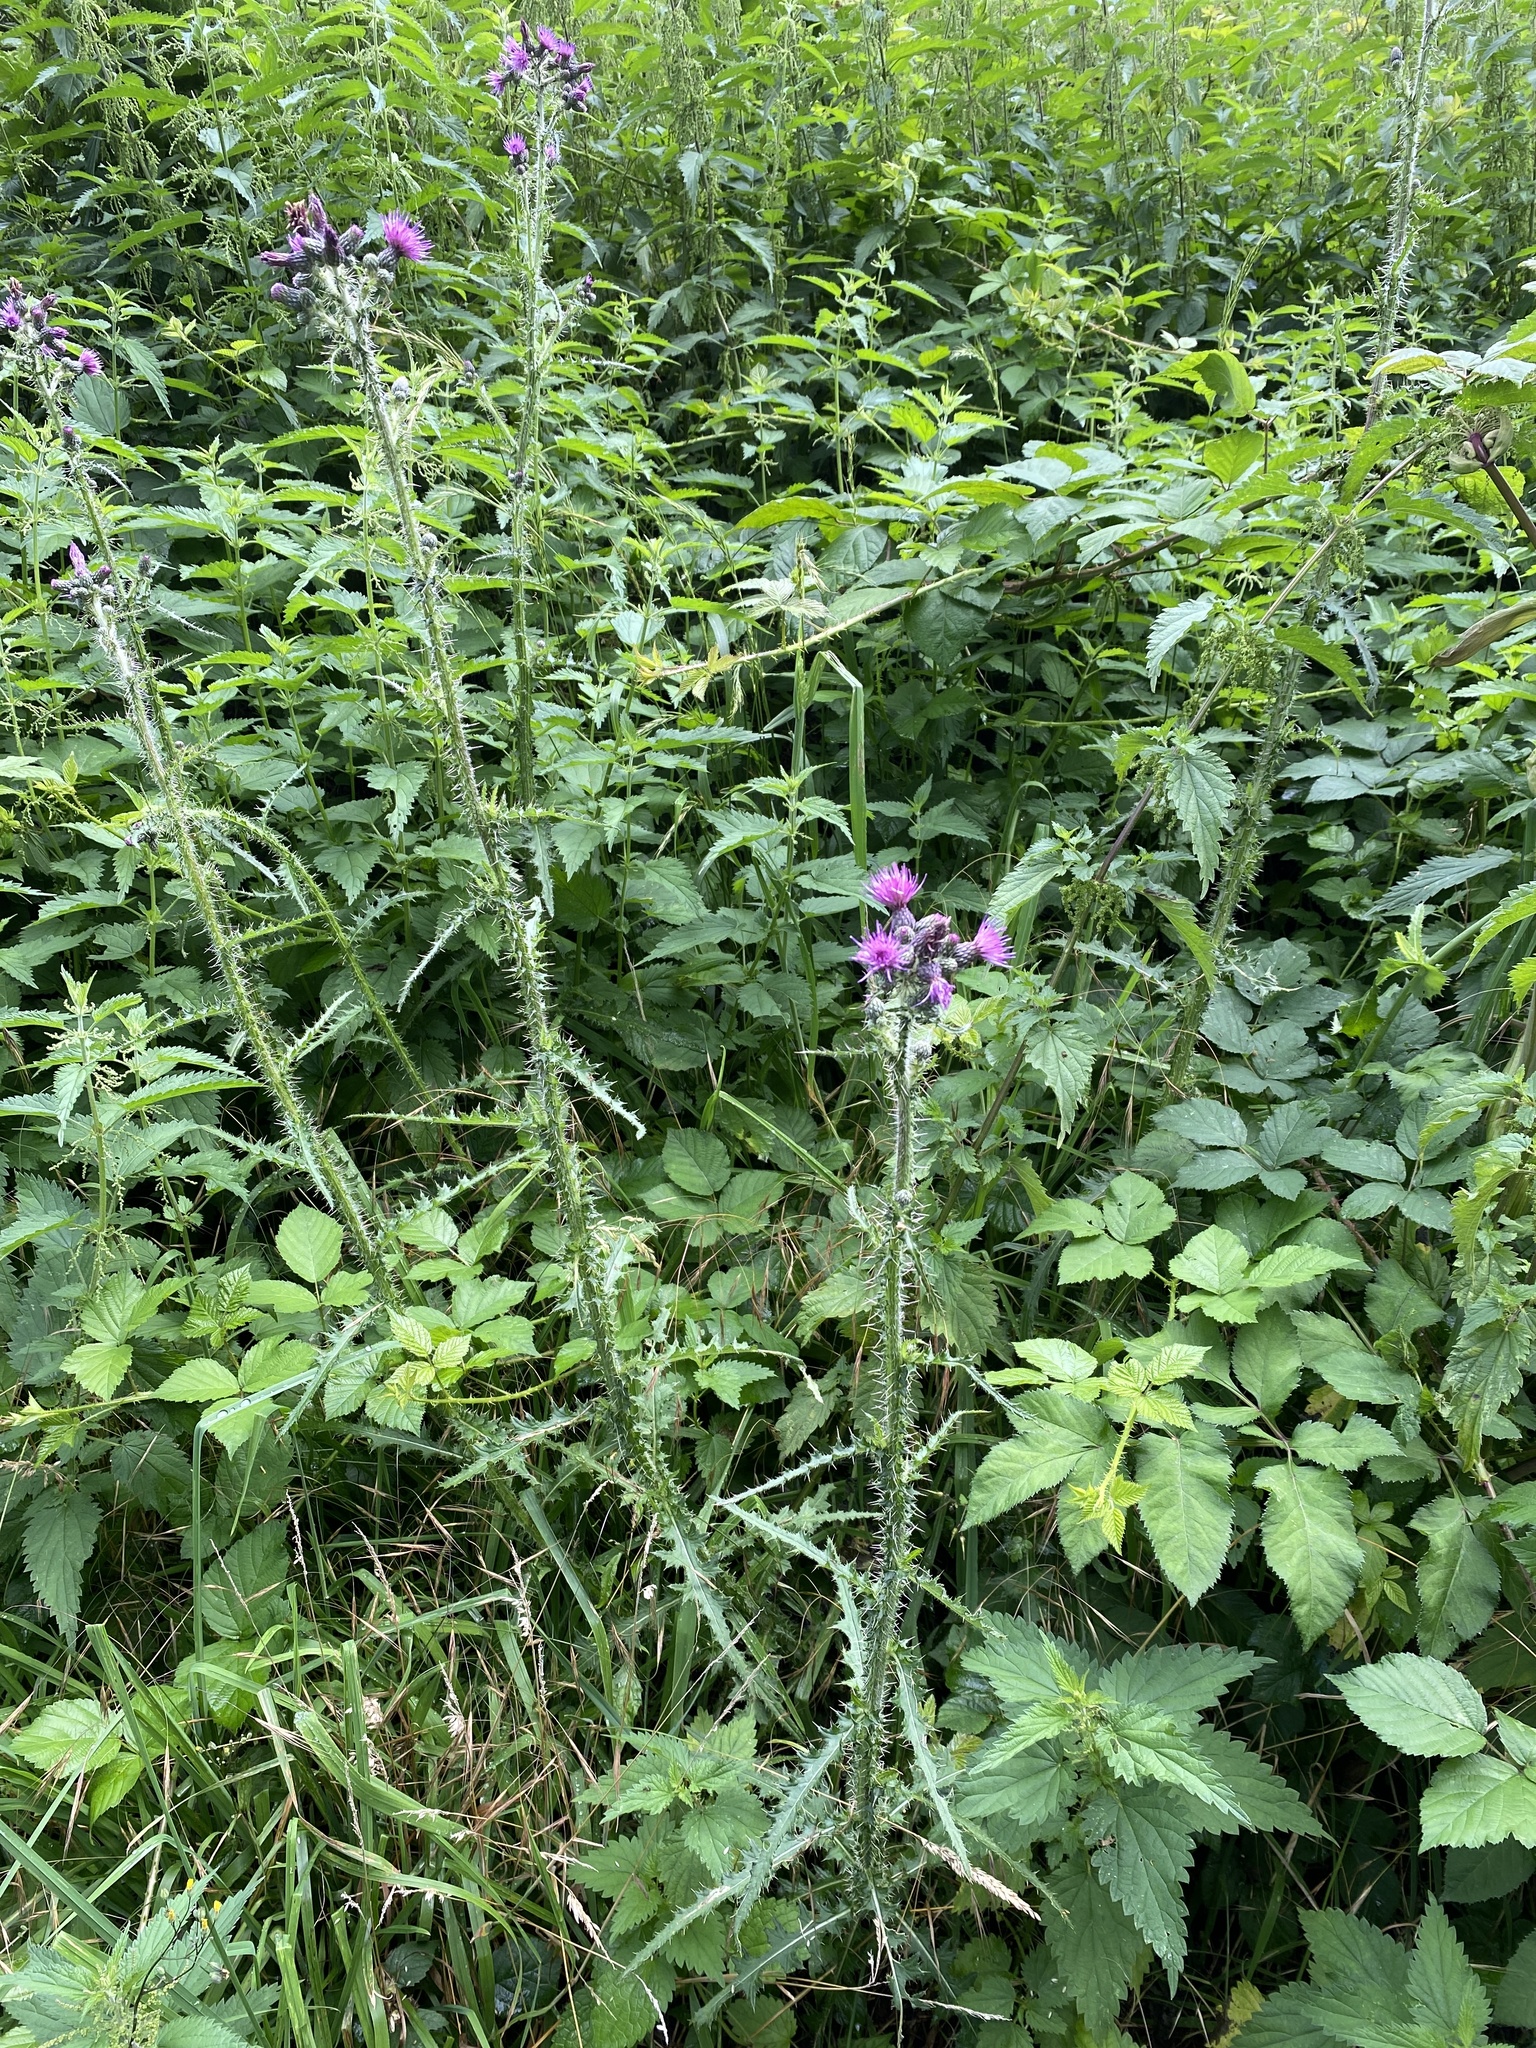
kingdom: Plantae
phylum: Tracheophyta
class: Magnoliopsida
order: Asterales
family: Asteraceae
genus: Cirsium
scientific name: Cirsium palustre
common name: Marsh thistle
